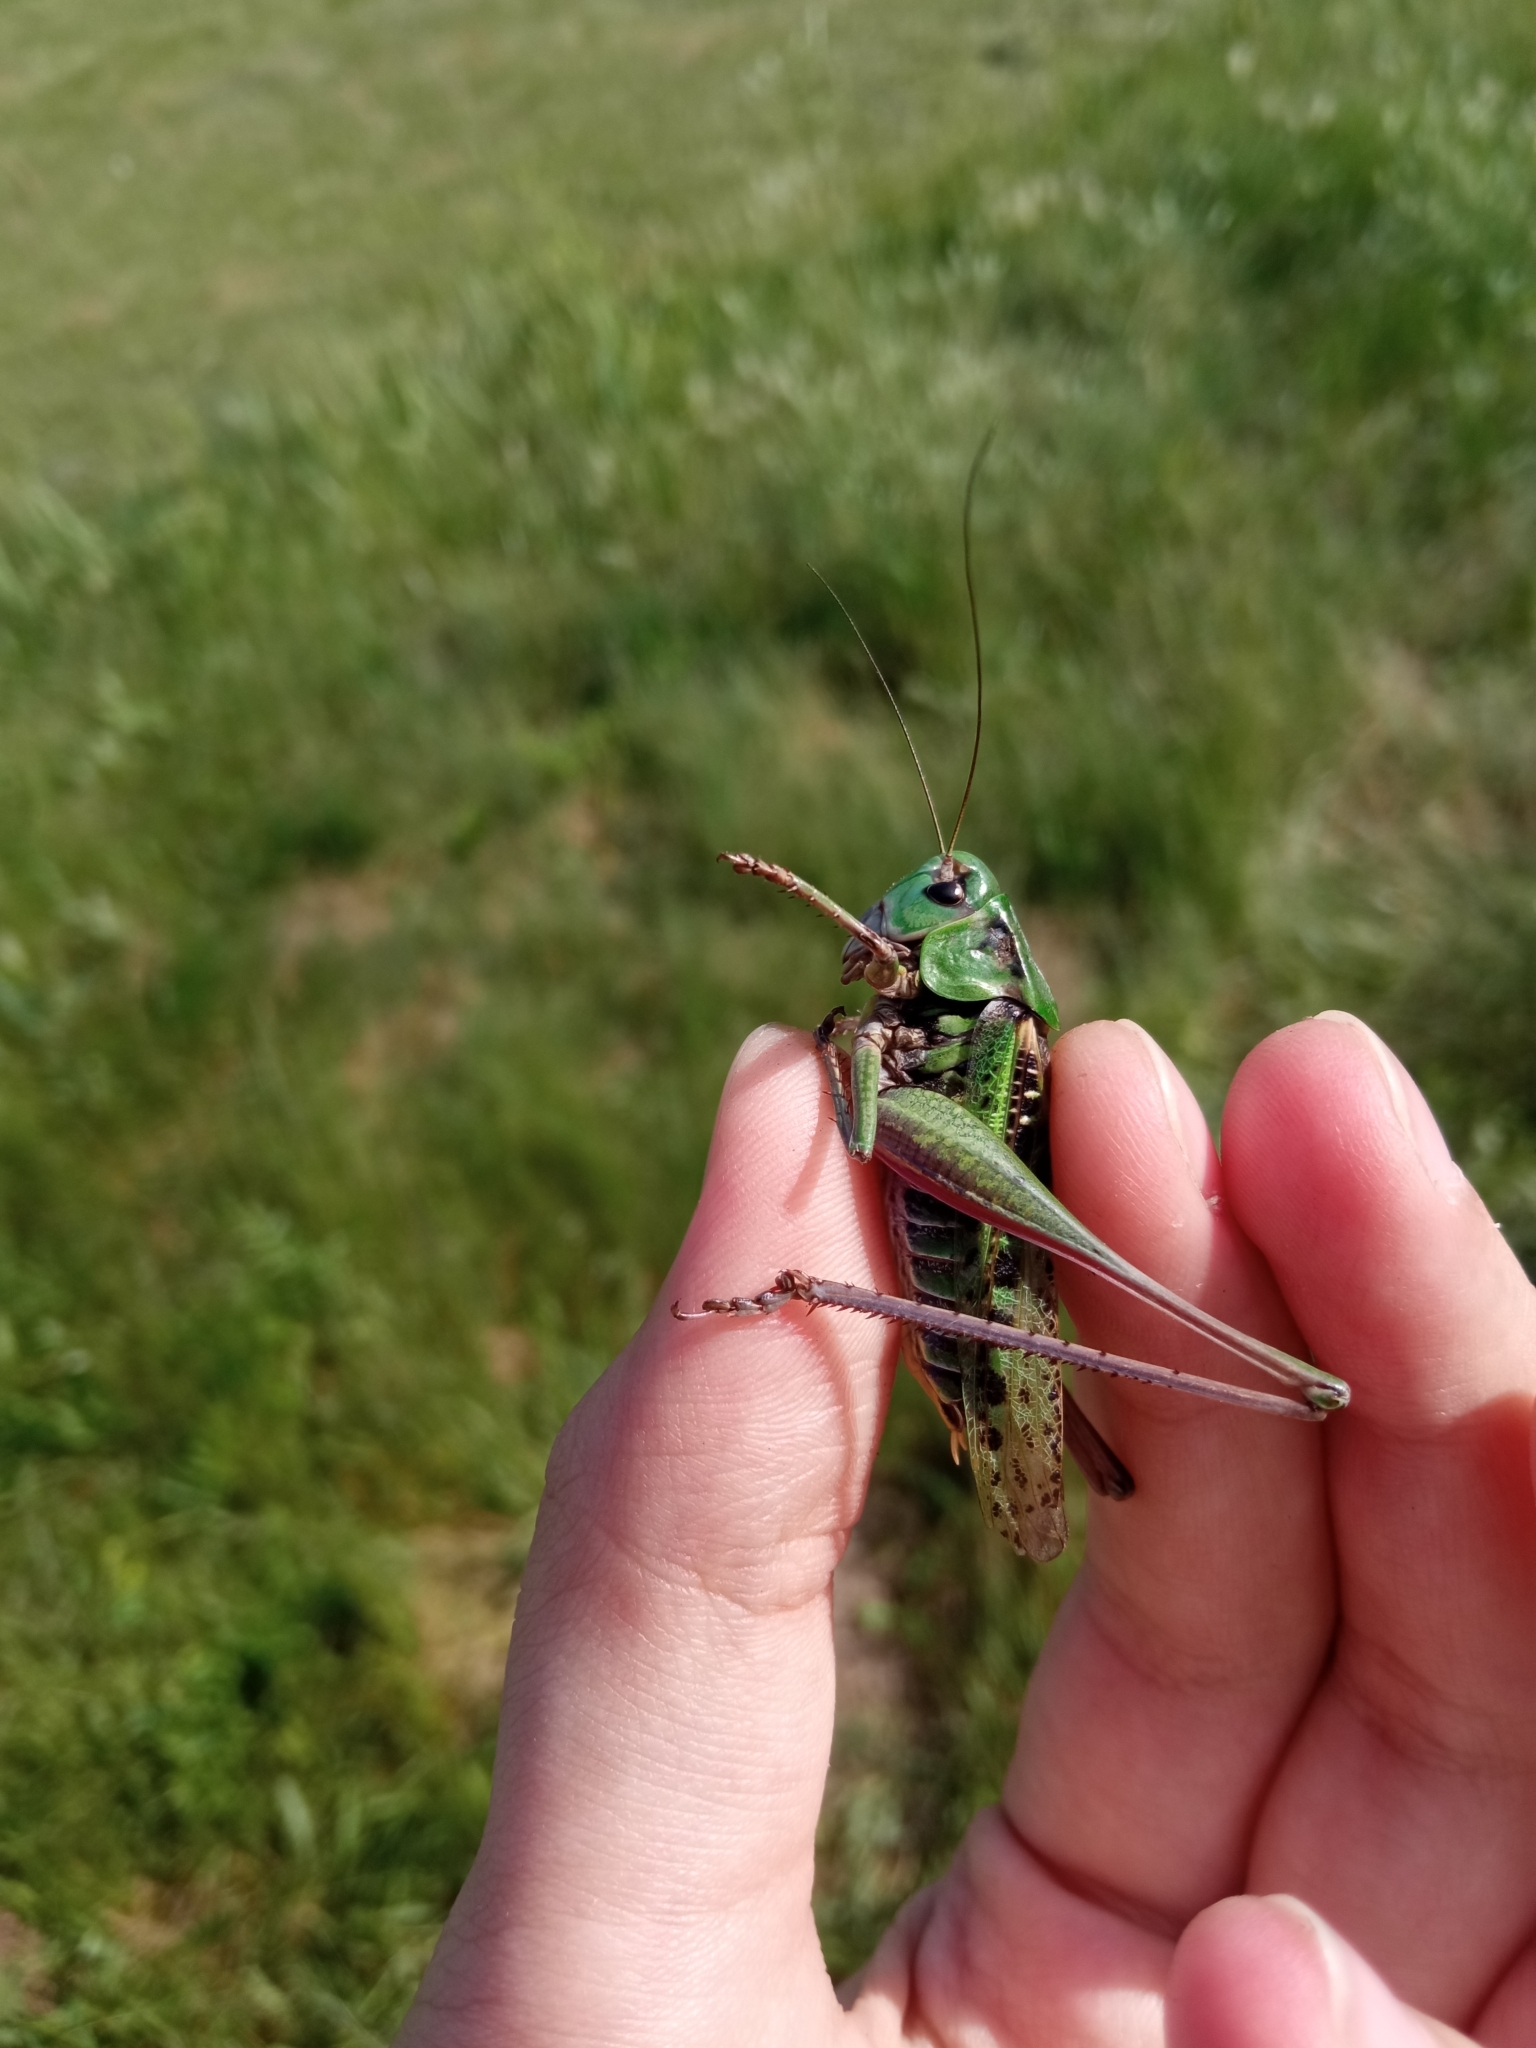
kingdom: Animalia
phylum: Arthropoda
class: Insecta
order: Orthoptera
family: Tettigoniidae
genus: Decticus
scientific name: Decticus verrucivorus
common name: Wart-biter
